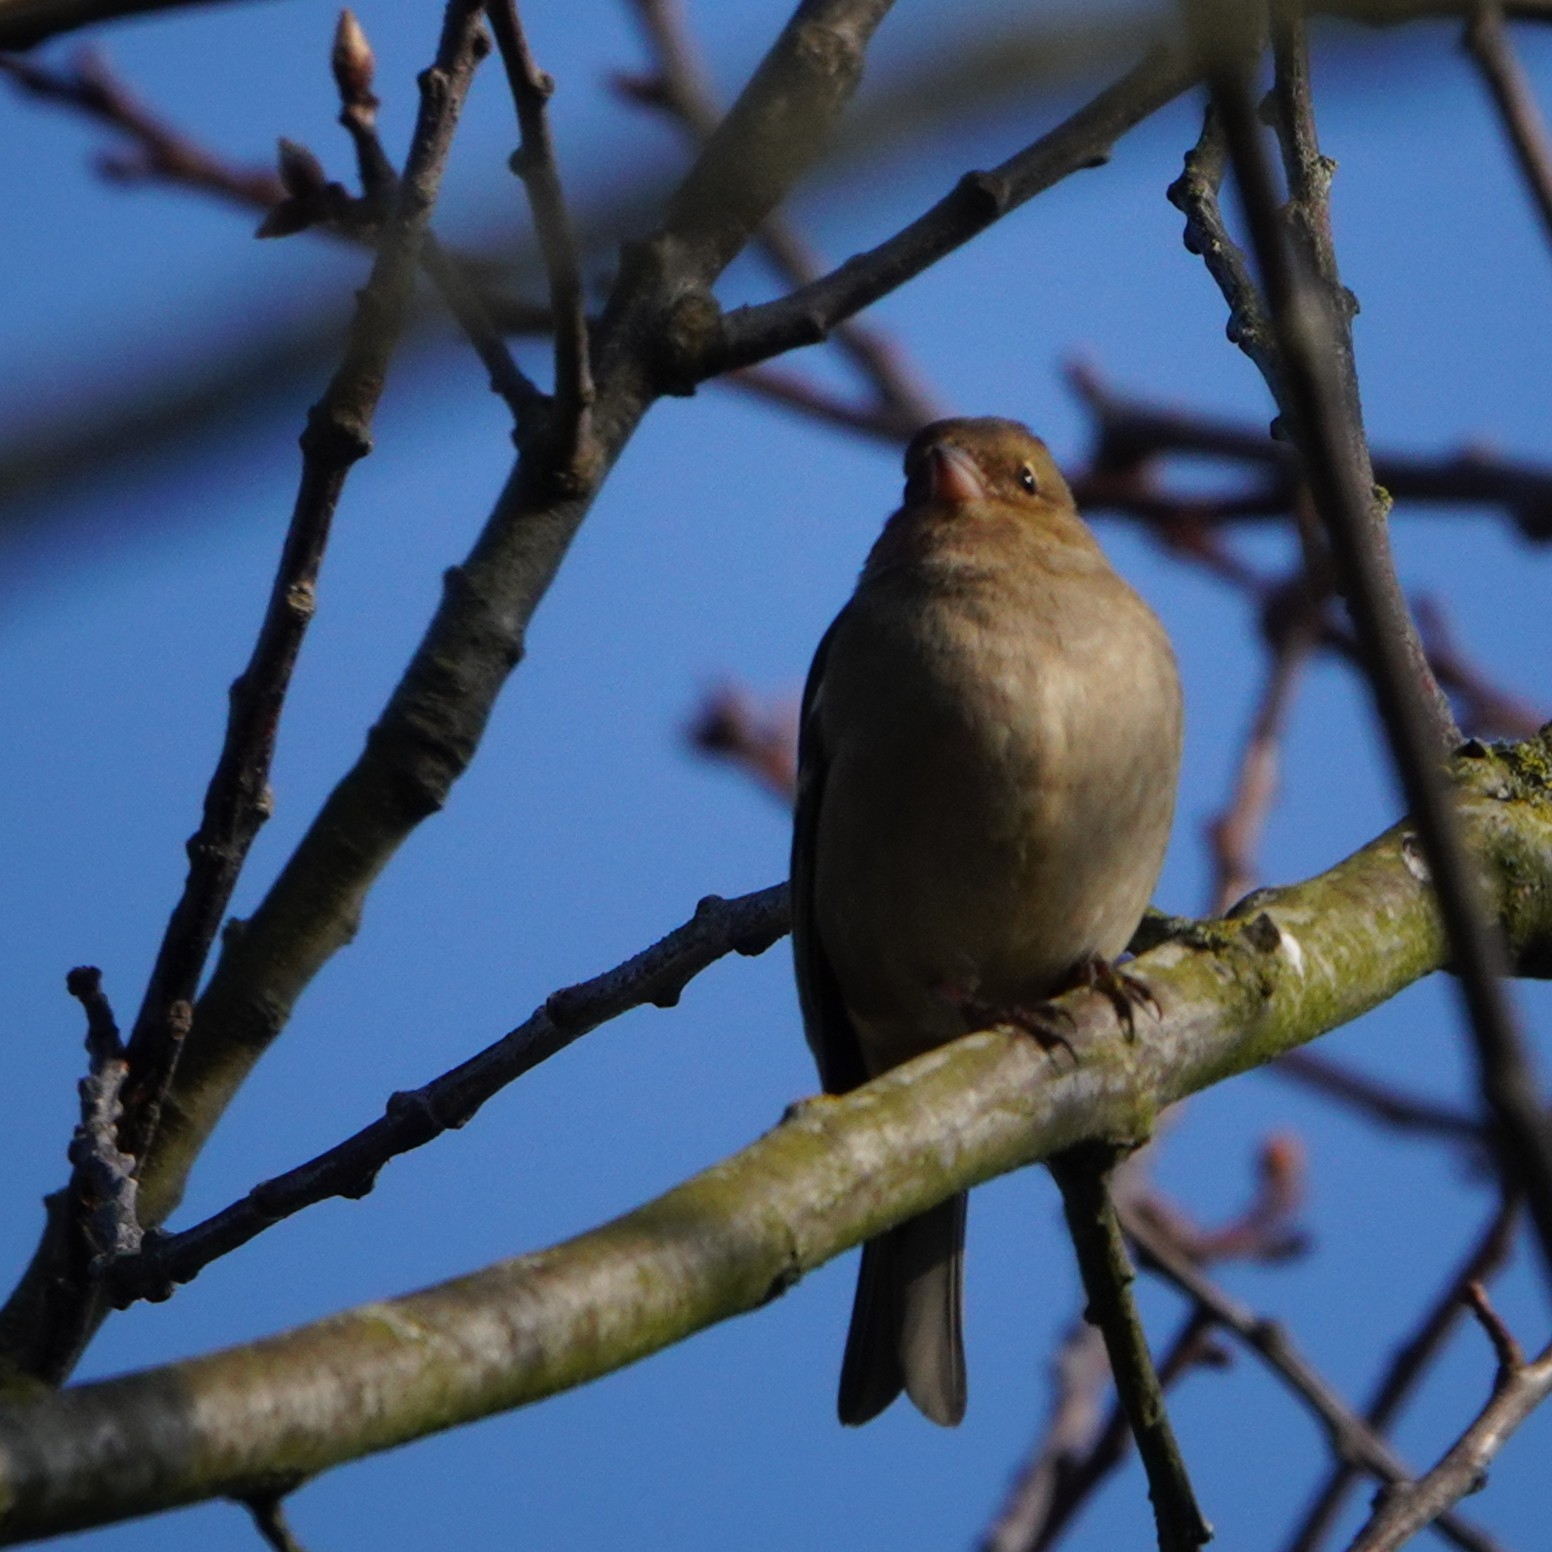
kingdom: Animalia
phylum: Chordata
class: Aves
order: Passeriformes
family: Fringillidae
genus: Fringilla
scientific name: Fringilla coelebs
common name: Common chaffinch
